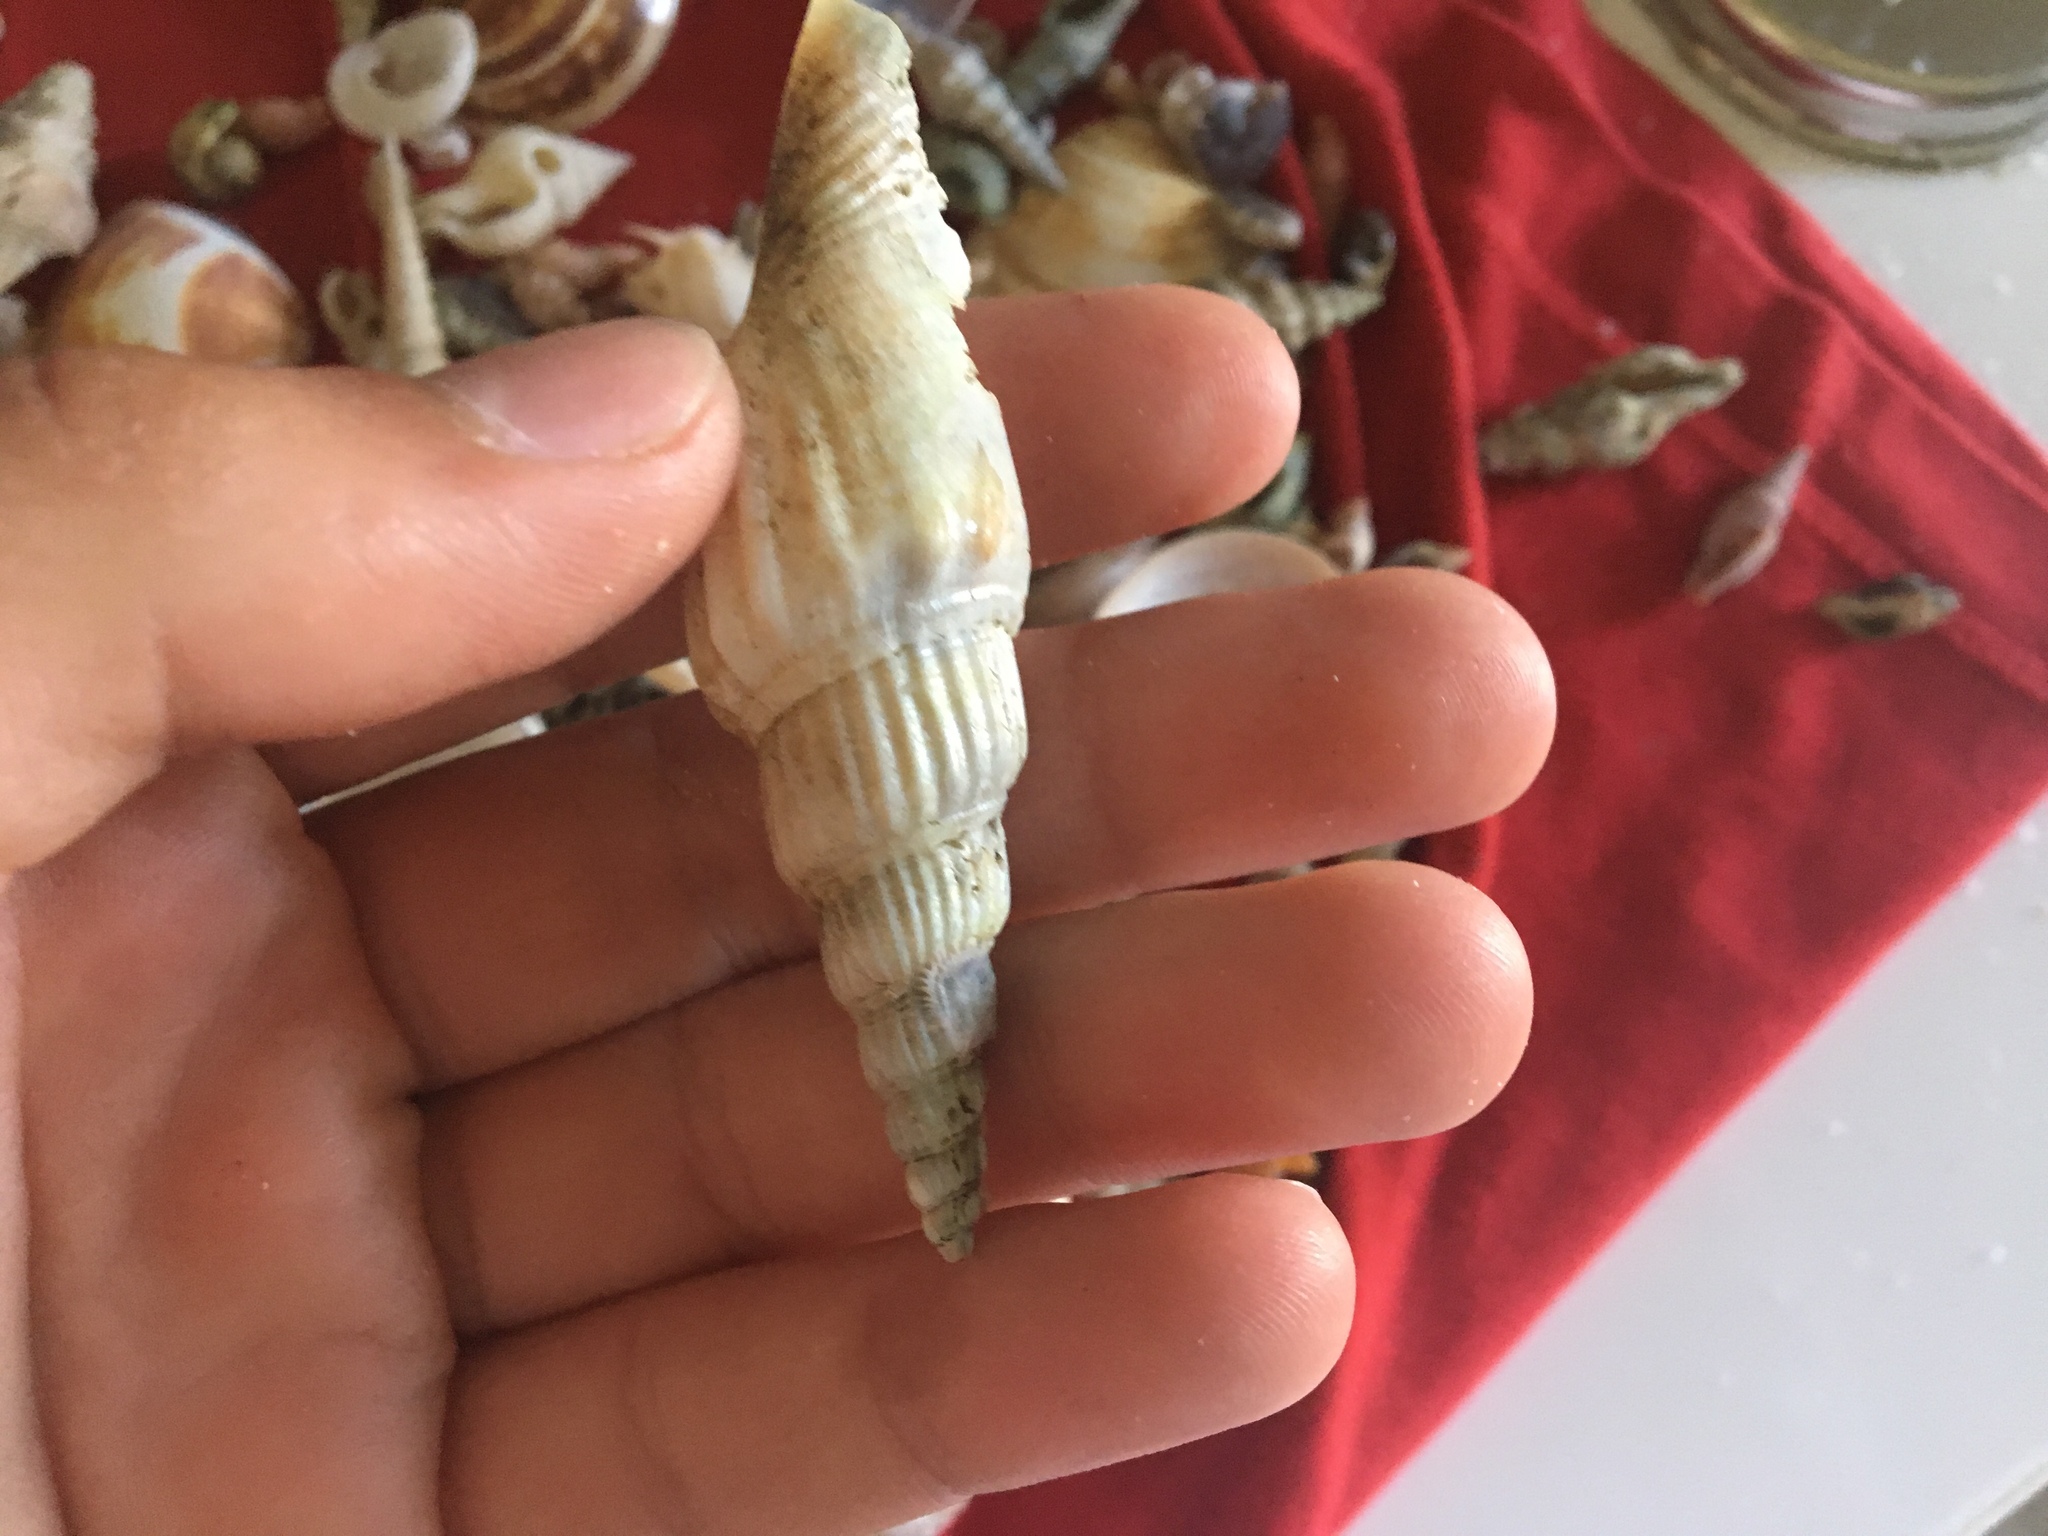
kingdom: Animalia
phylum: Mollusca
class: Gastropoda
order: Littorinimorpha
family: Strombidae
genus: Doxander
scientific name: Doxander vittatus
